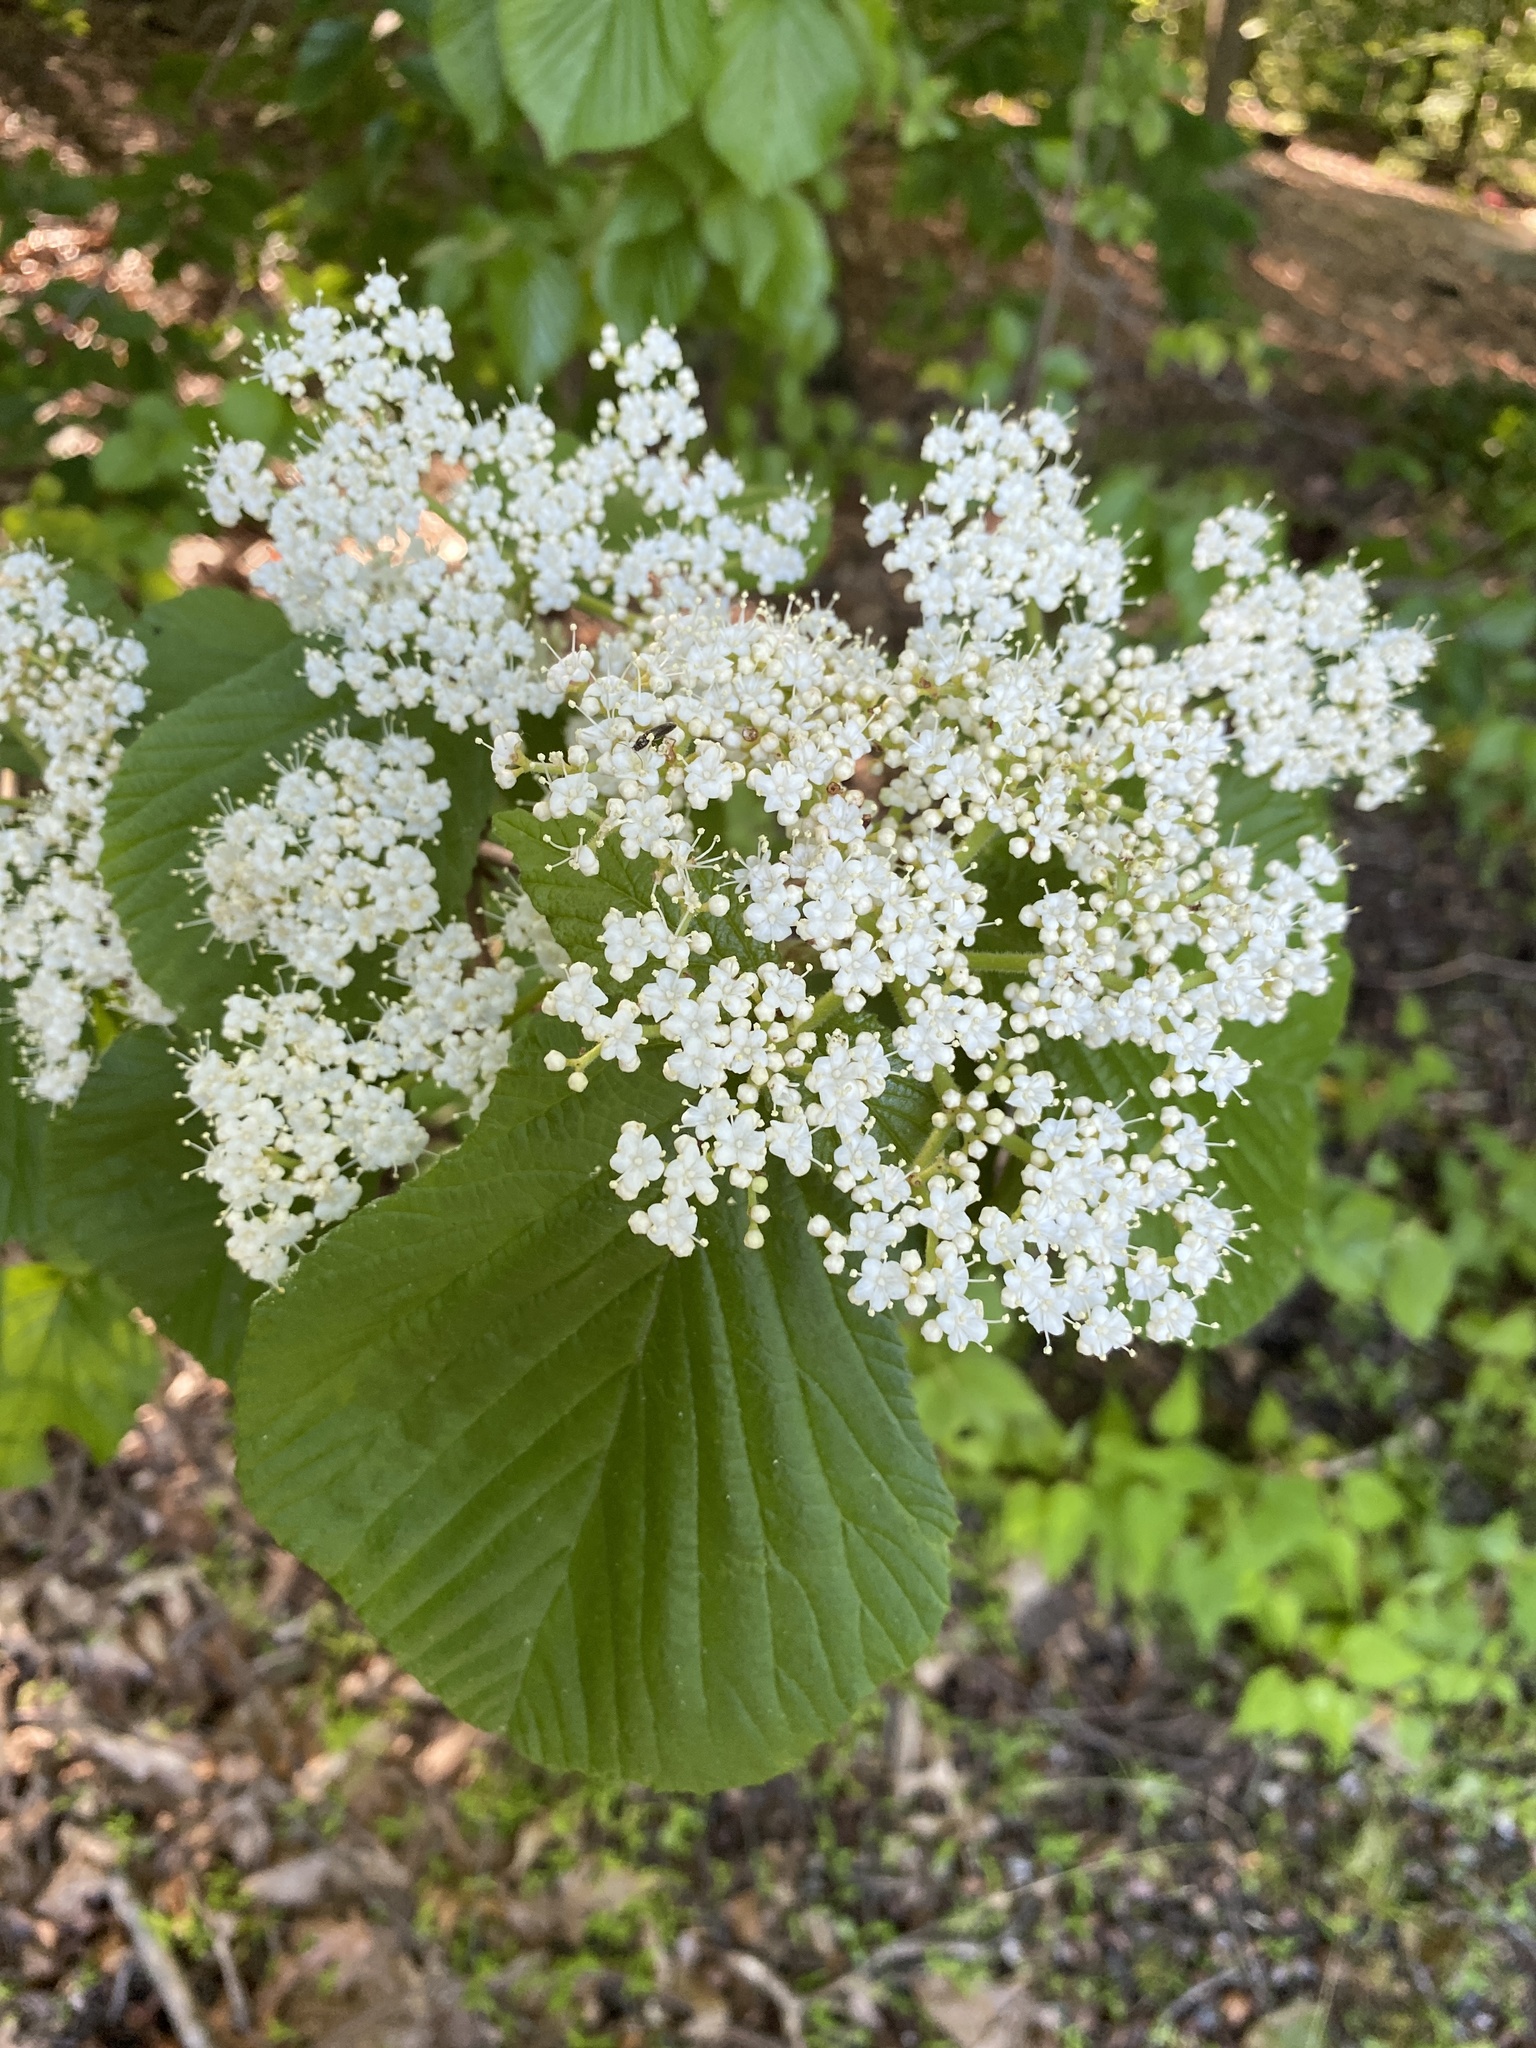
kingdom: Plantae
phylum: Tracheophyta
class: Magnoliopsida
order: Dipsacales
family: Viburnaceae
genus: Viburnum
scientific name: Viburnum dilatatum
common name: Linden arrowwood
